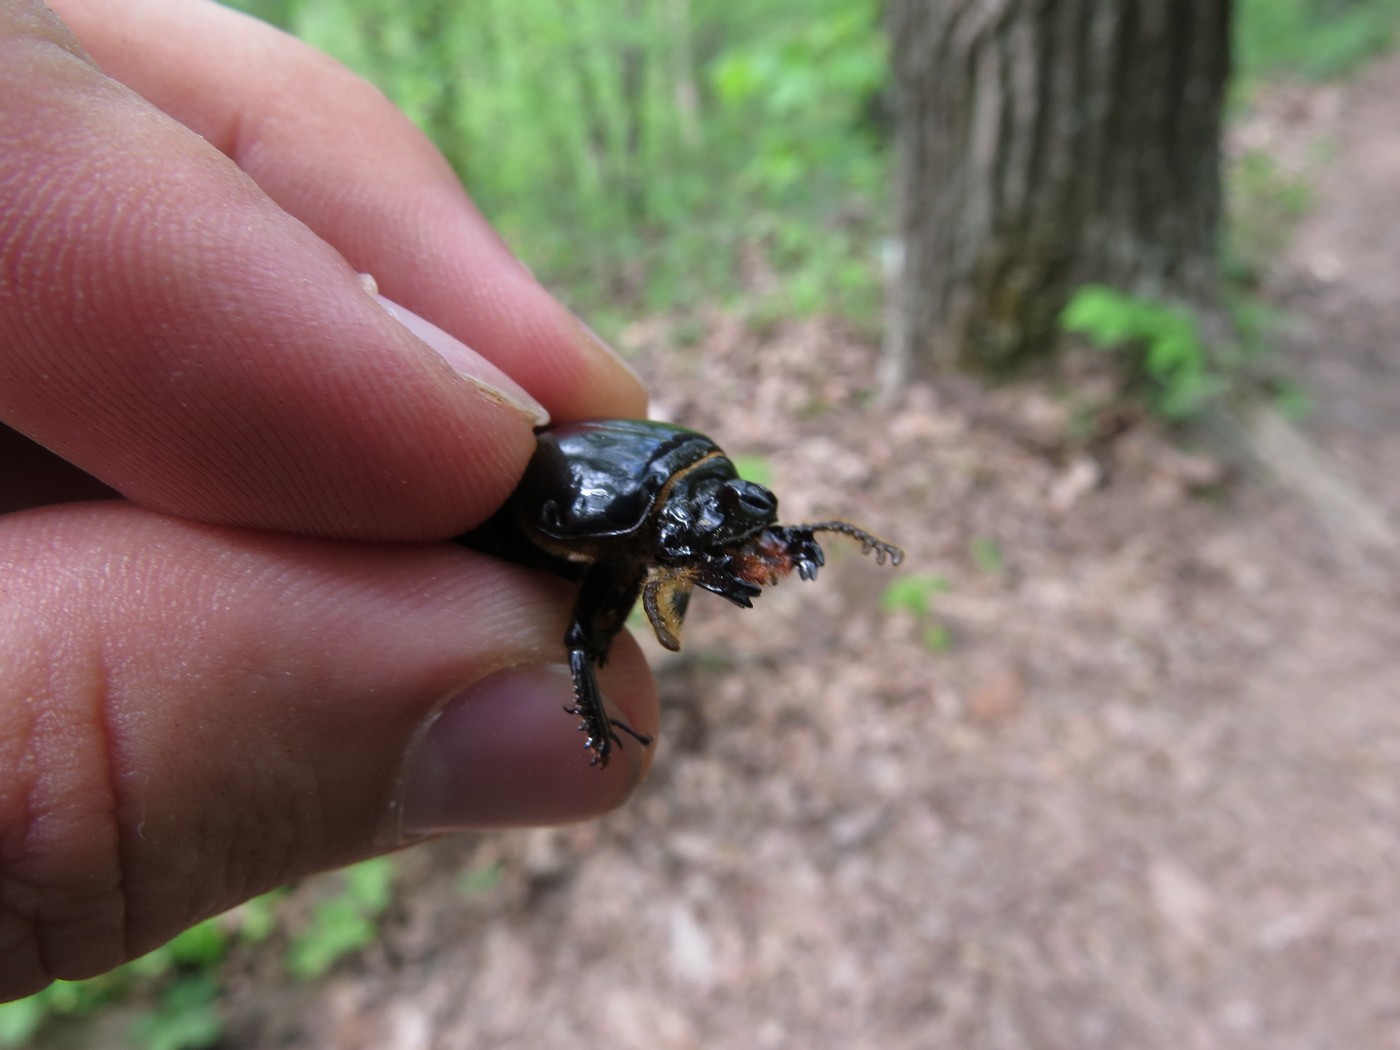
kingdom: Animalia
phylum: Arthropoda
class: Insecta
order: Coleoptera
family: Passalidae
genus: Odontotaenius
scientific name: Odontotaenius disjunctus
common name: Patent leather beetle
